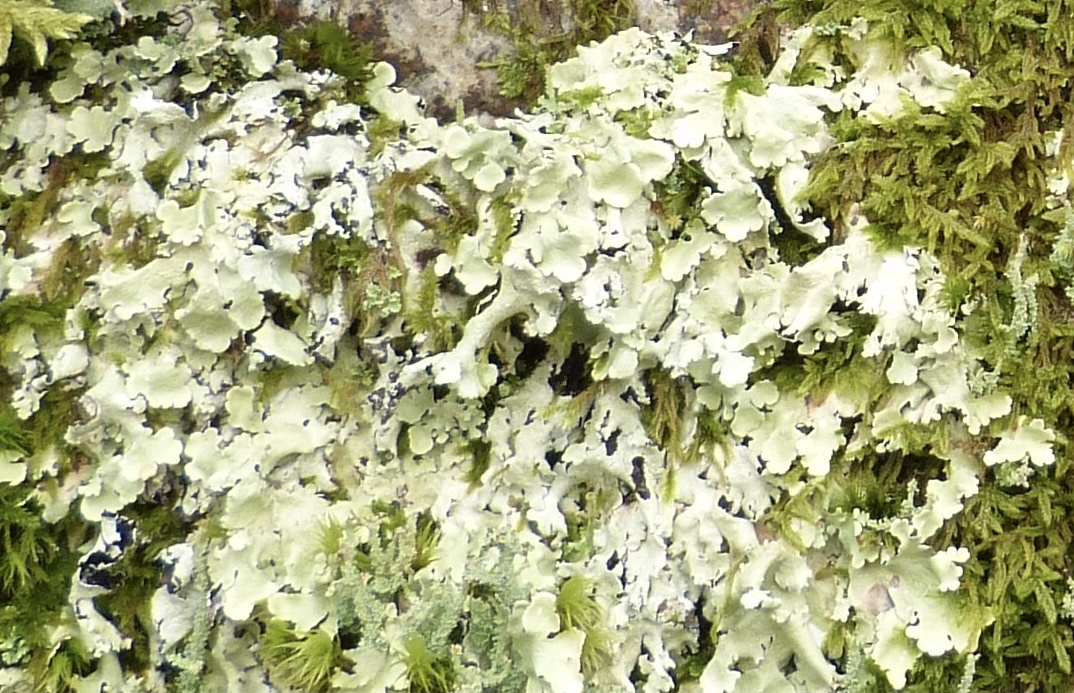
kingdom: Fungi
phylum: Ascomycota
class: Lecanoromycetes
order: Lecanorales
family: Parmeliaceae
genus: Flavoparmelia
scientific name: Flavoparmelia caperata
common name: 40-mile per hour lichen
